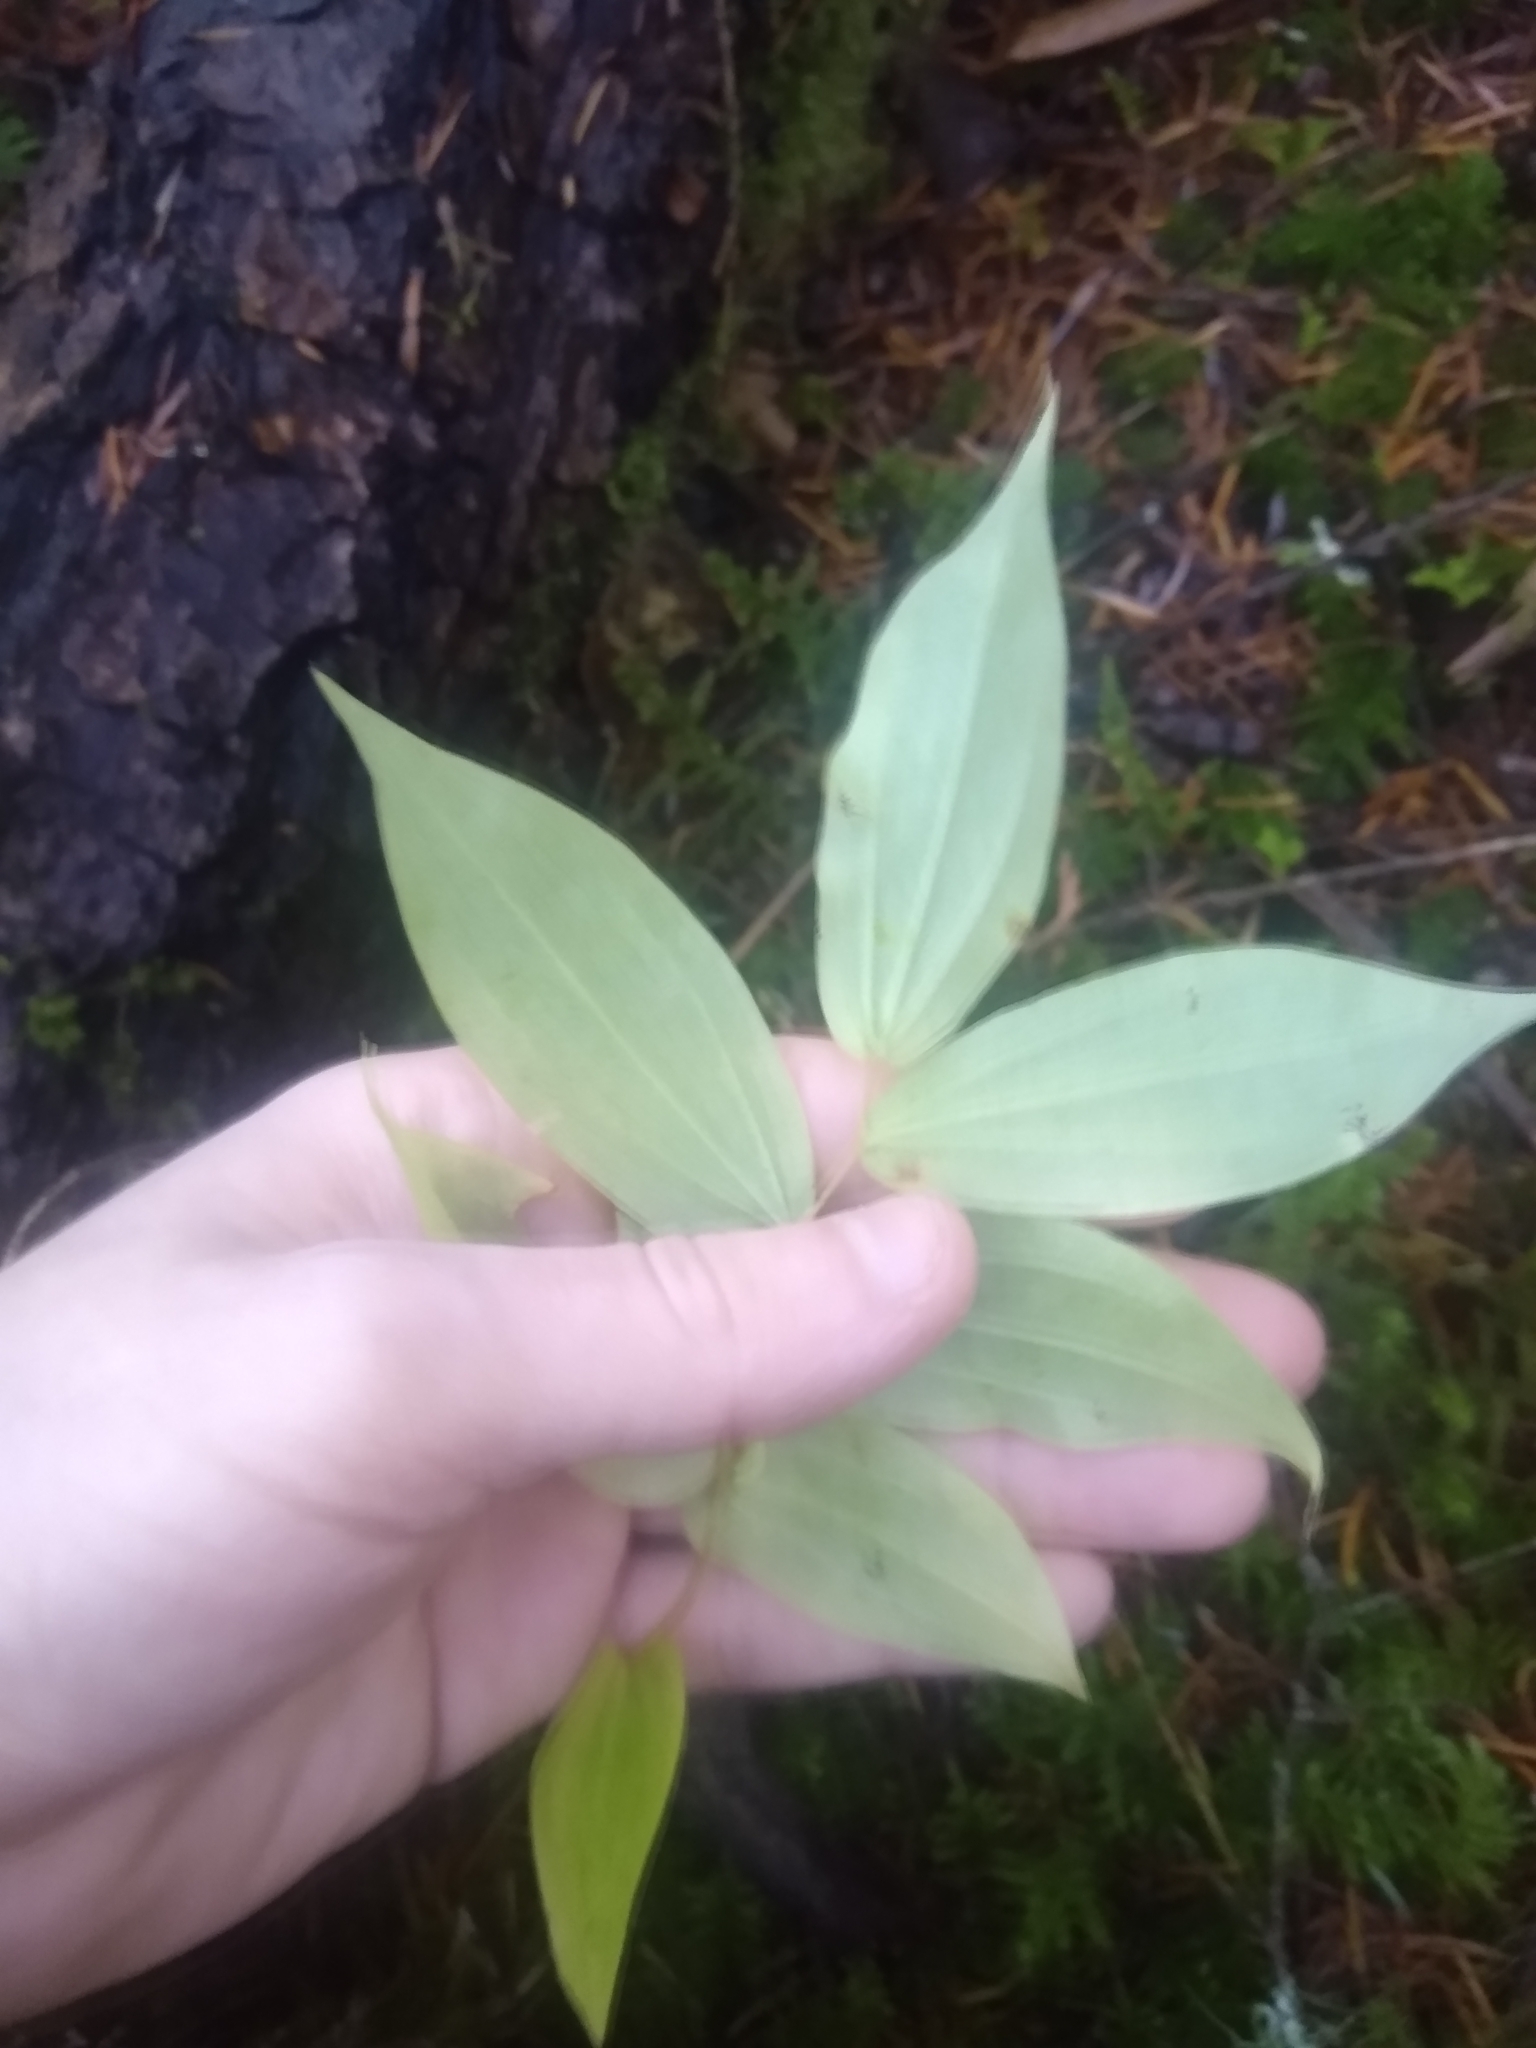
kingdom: Plantae
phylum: Tracheophyta
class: Liliopsida
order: Liliales
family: Liliaceae
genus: Prosartes
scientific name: Prosartes hookeri
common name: Fairy-bells
